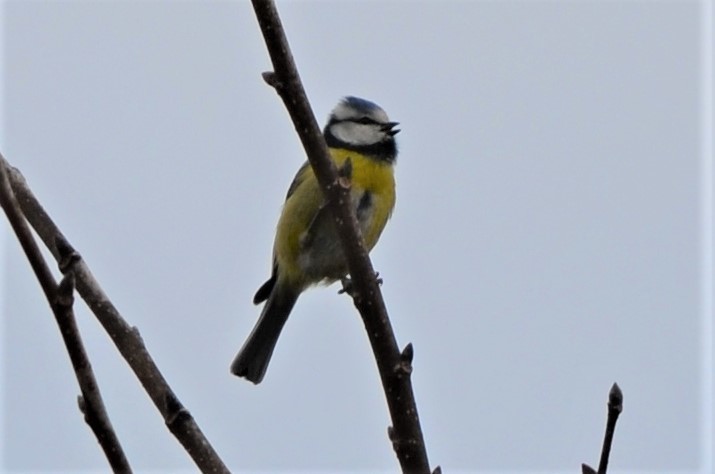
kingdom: Animalia
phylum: Chordata
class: Aves
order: Passeriformes
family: Paridae
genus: Cyanistes
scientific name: Cyanistes caeruleus
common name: Eurasian blue tit
